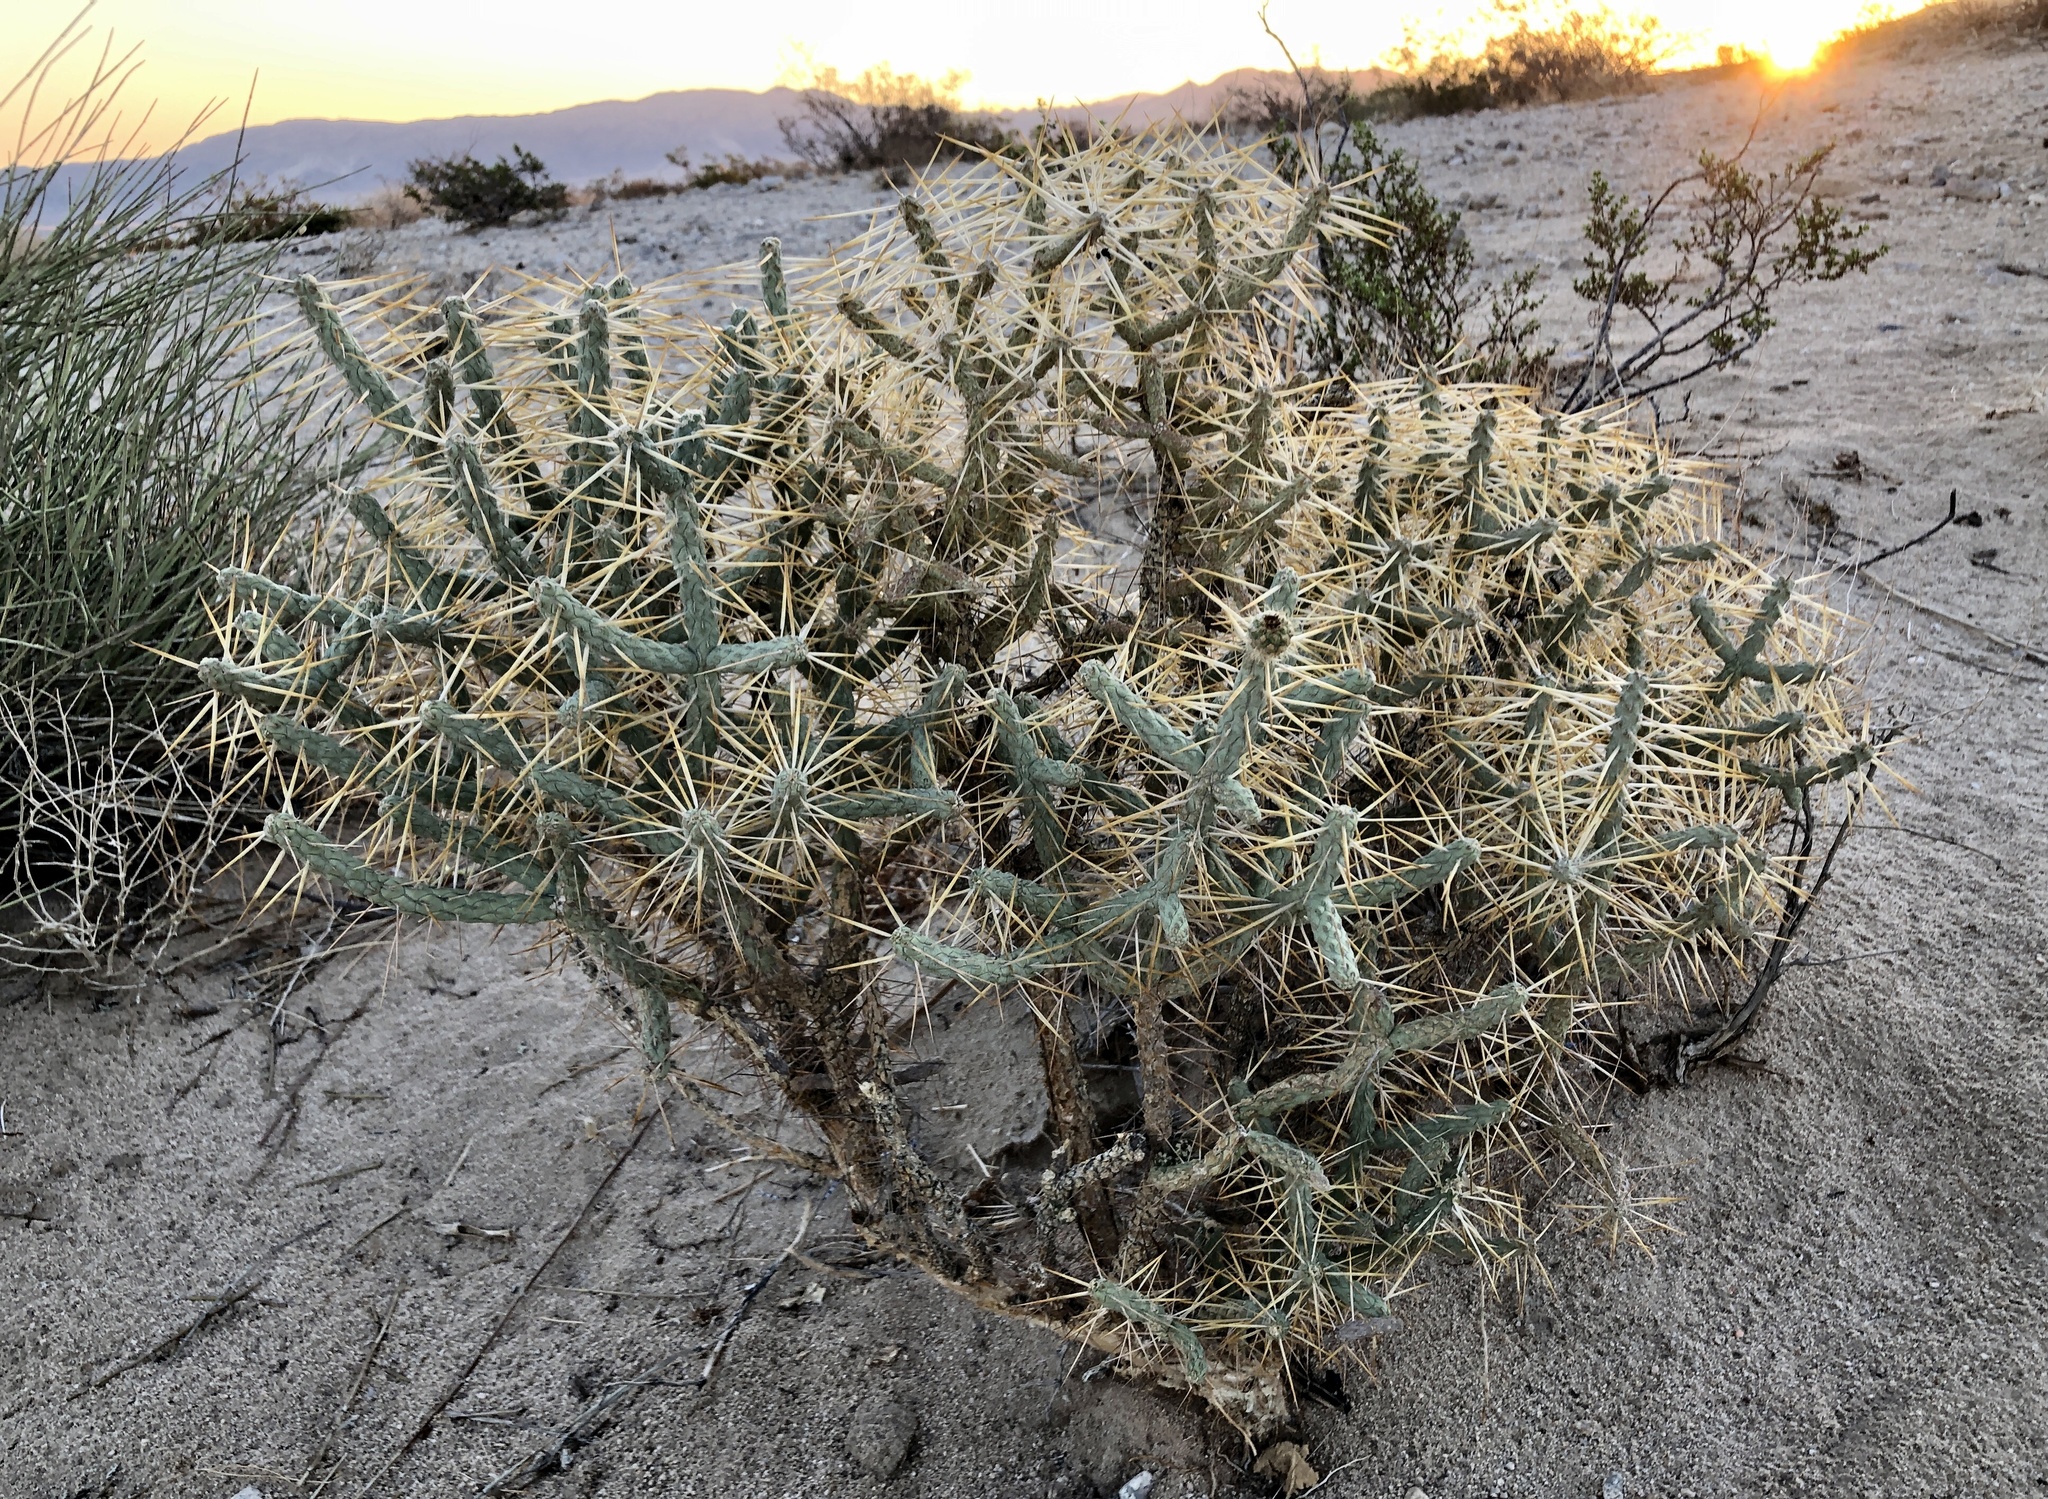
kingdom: Plantae
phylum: Tracheophyta
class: Magnoliopsida
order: Caryophyllales
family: Cactaceae
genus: Cylindropuntia
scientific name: Cylindropuntia ramosissima
